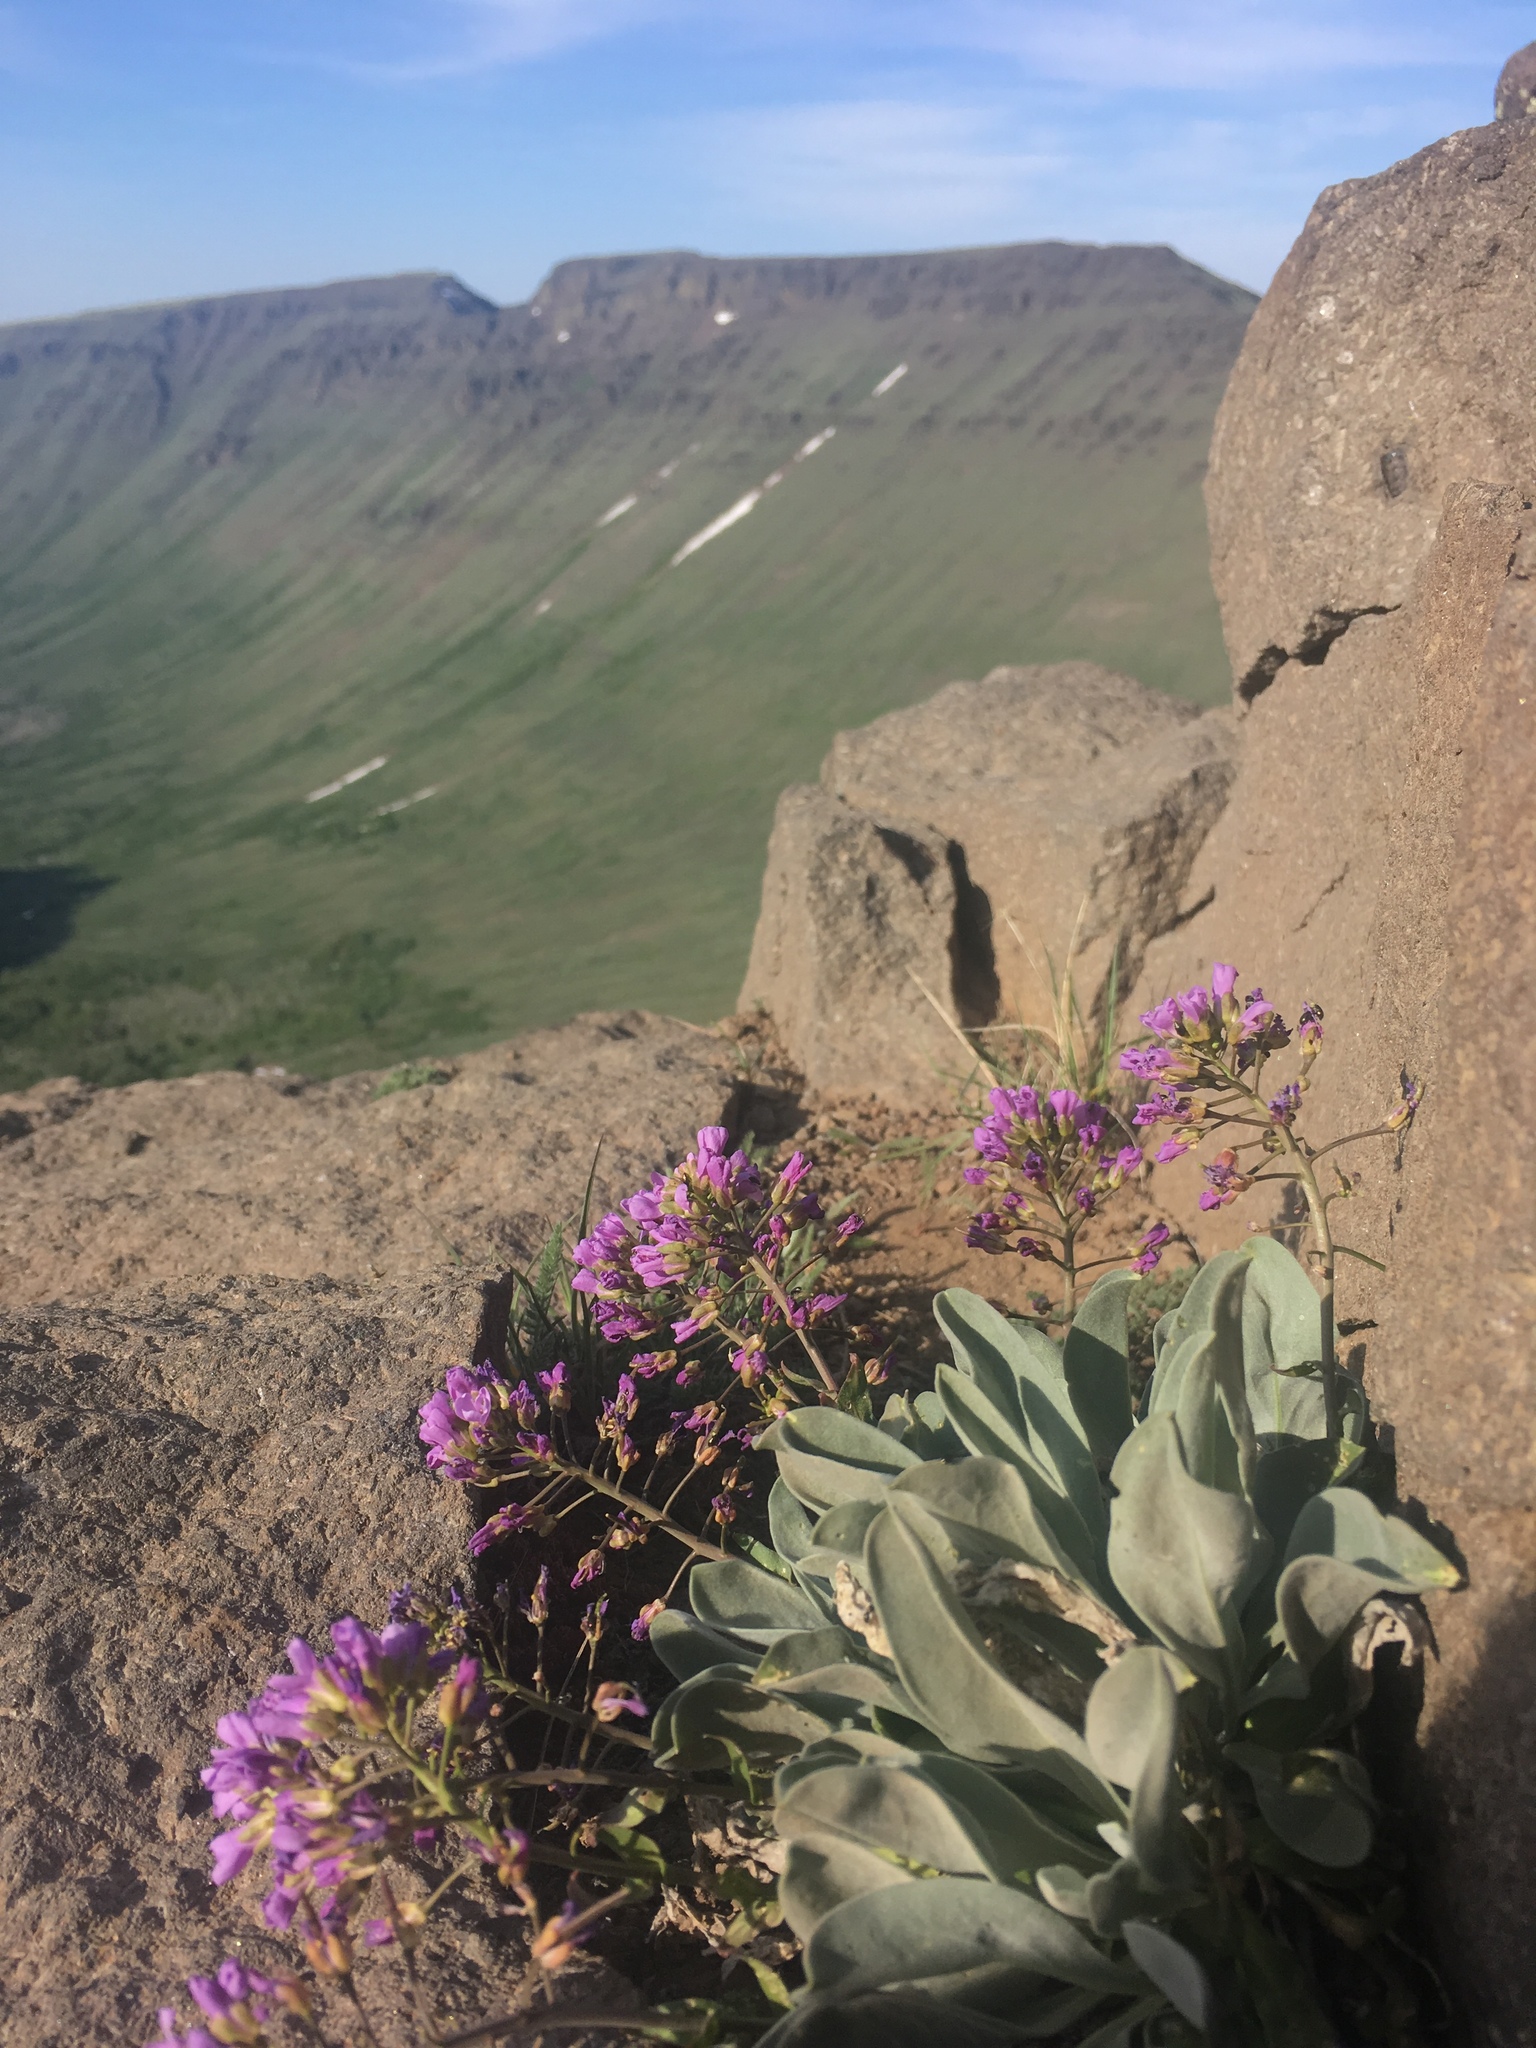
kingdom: Plantae
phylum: Tracheophyta
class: Magnoliopsida
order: Brassicales
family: Brassicaceae
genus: Phoenicaulis
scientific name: Phoenicaulis cheiranthoides
